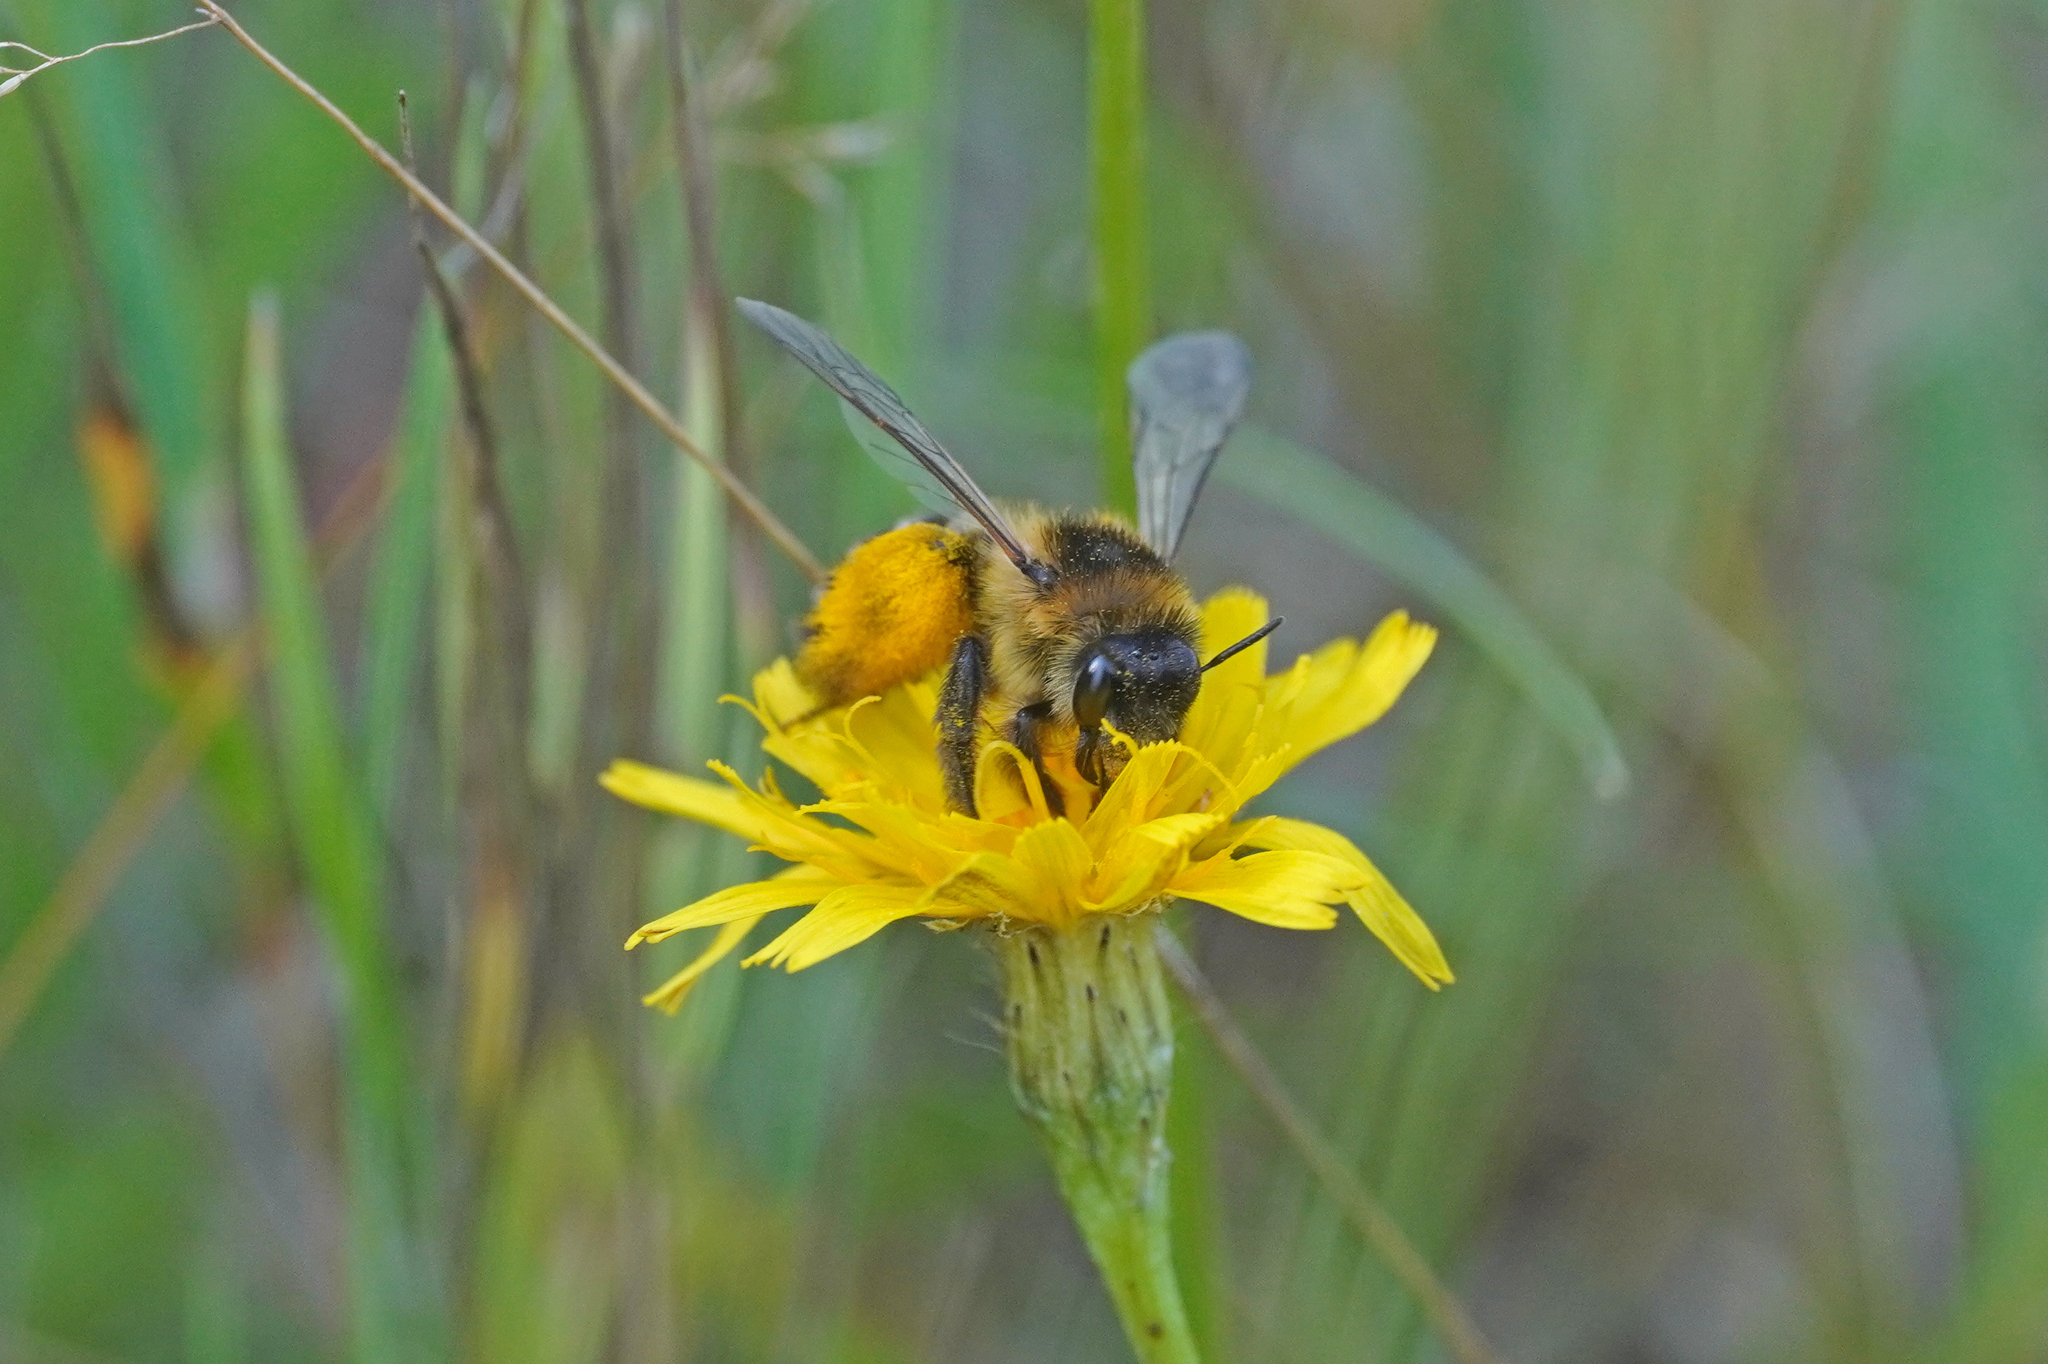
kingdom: Animalia
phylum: Arthropoda
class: Insecta
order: Hymenoptera
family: Melittidae
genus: Dasypoda
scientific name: Dasypoda hirtipes
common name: Pantaloon bee
